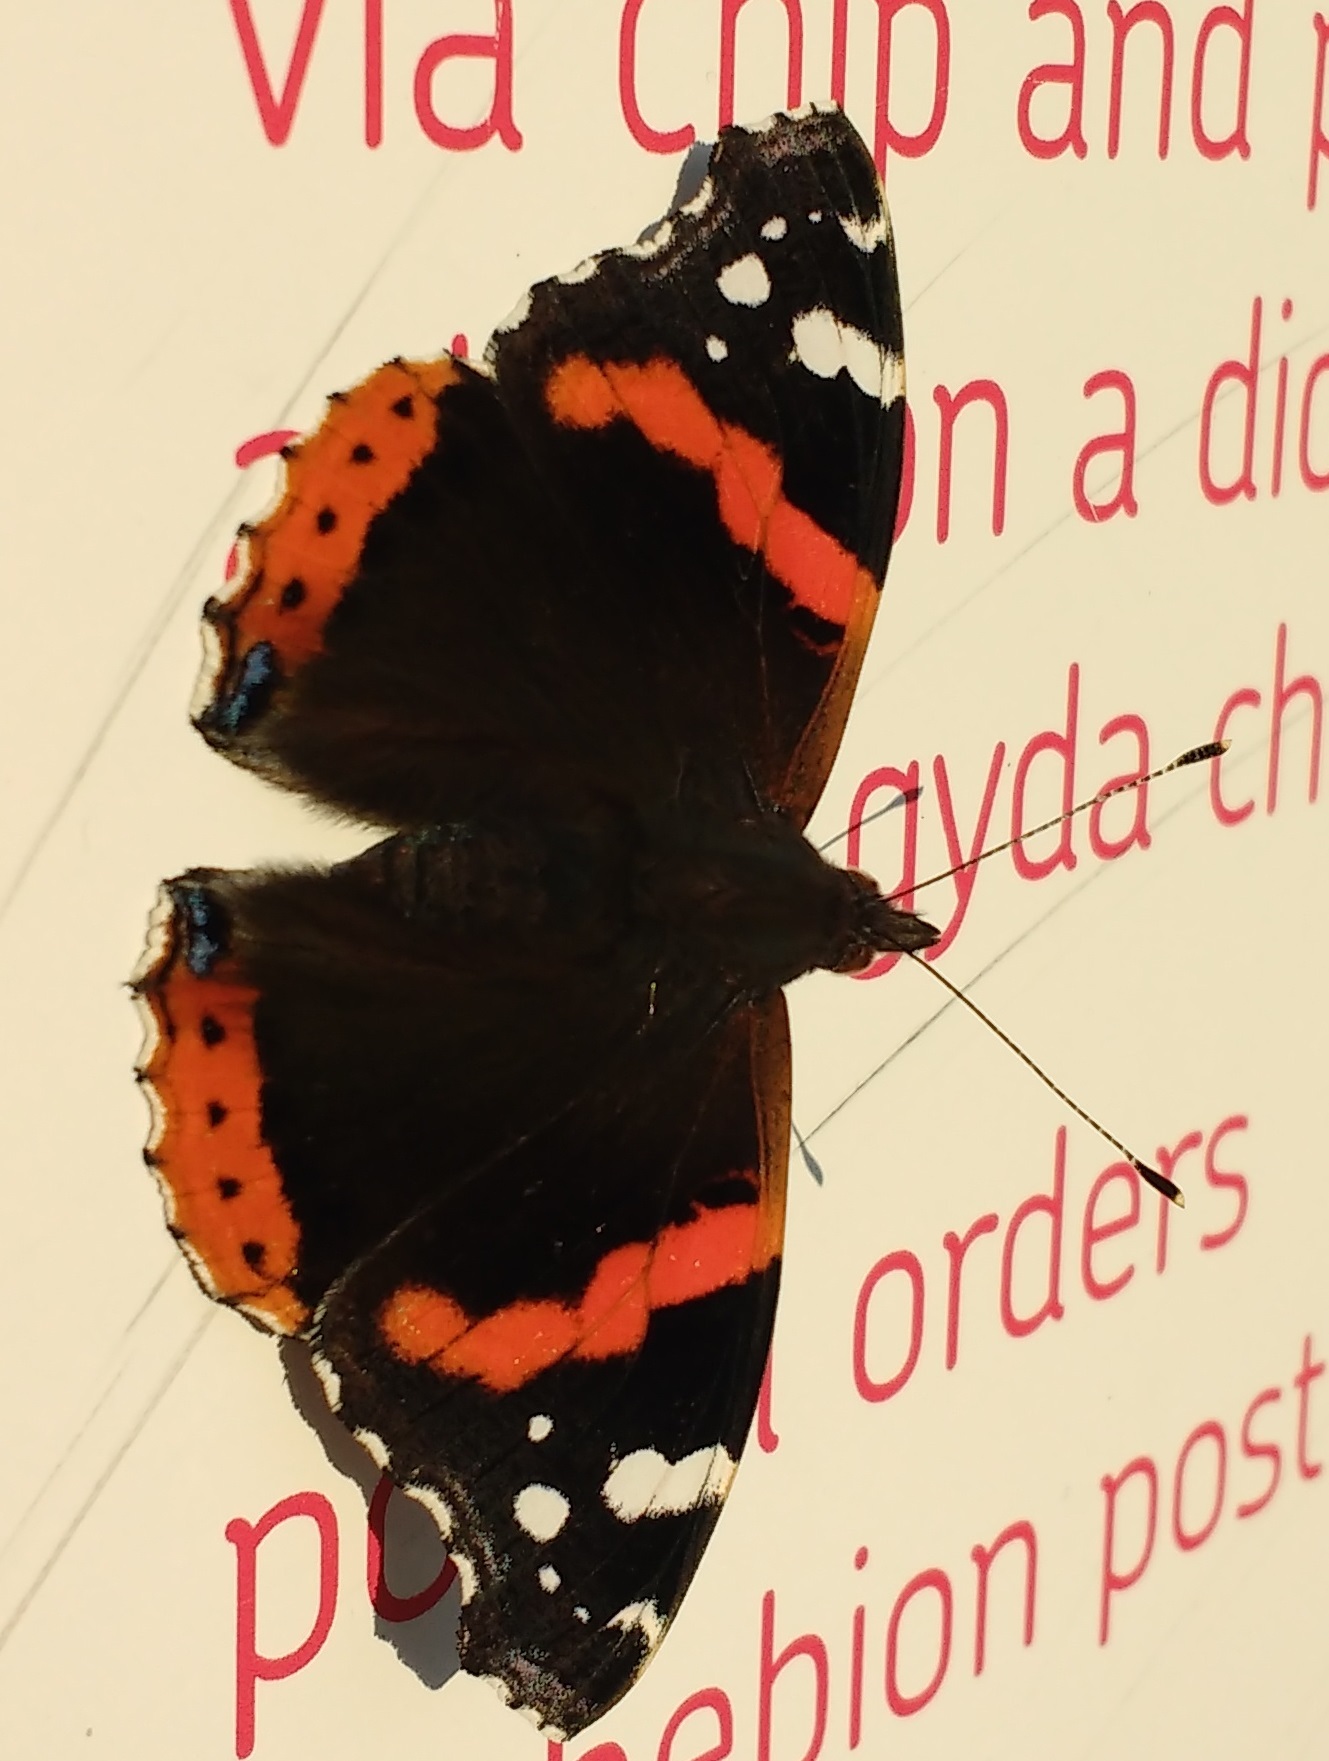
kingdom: Animalia
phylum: Arthropoda
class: Insecta
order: Lepidoptera
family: Nymphalidae
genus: Vanessa
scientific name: Vanessa atalanta
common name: Red admiral
